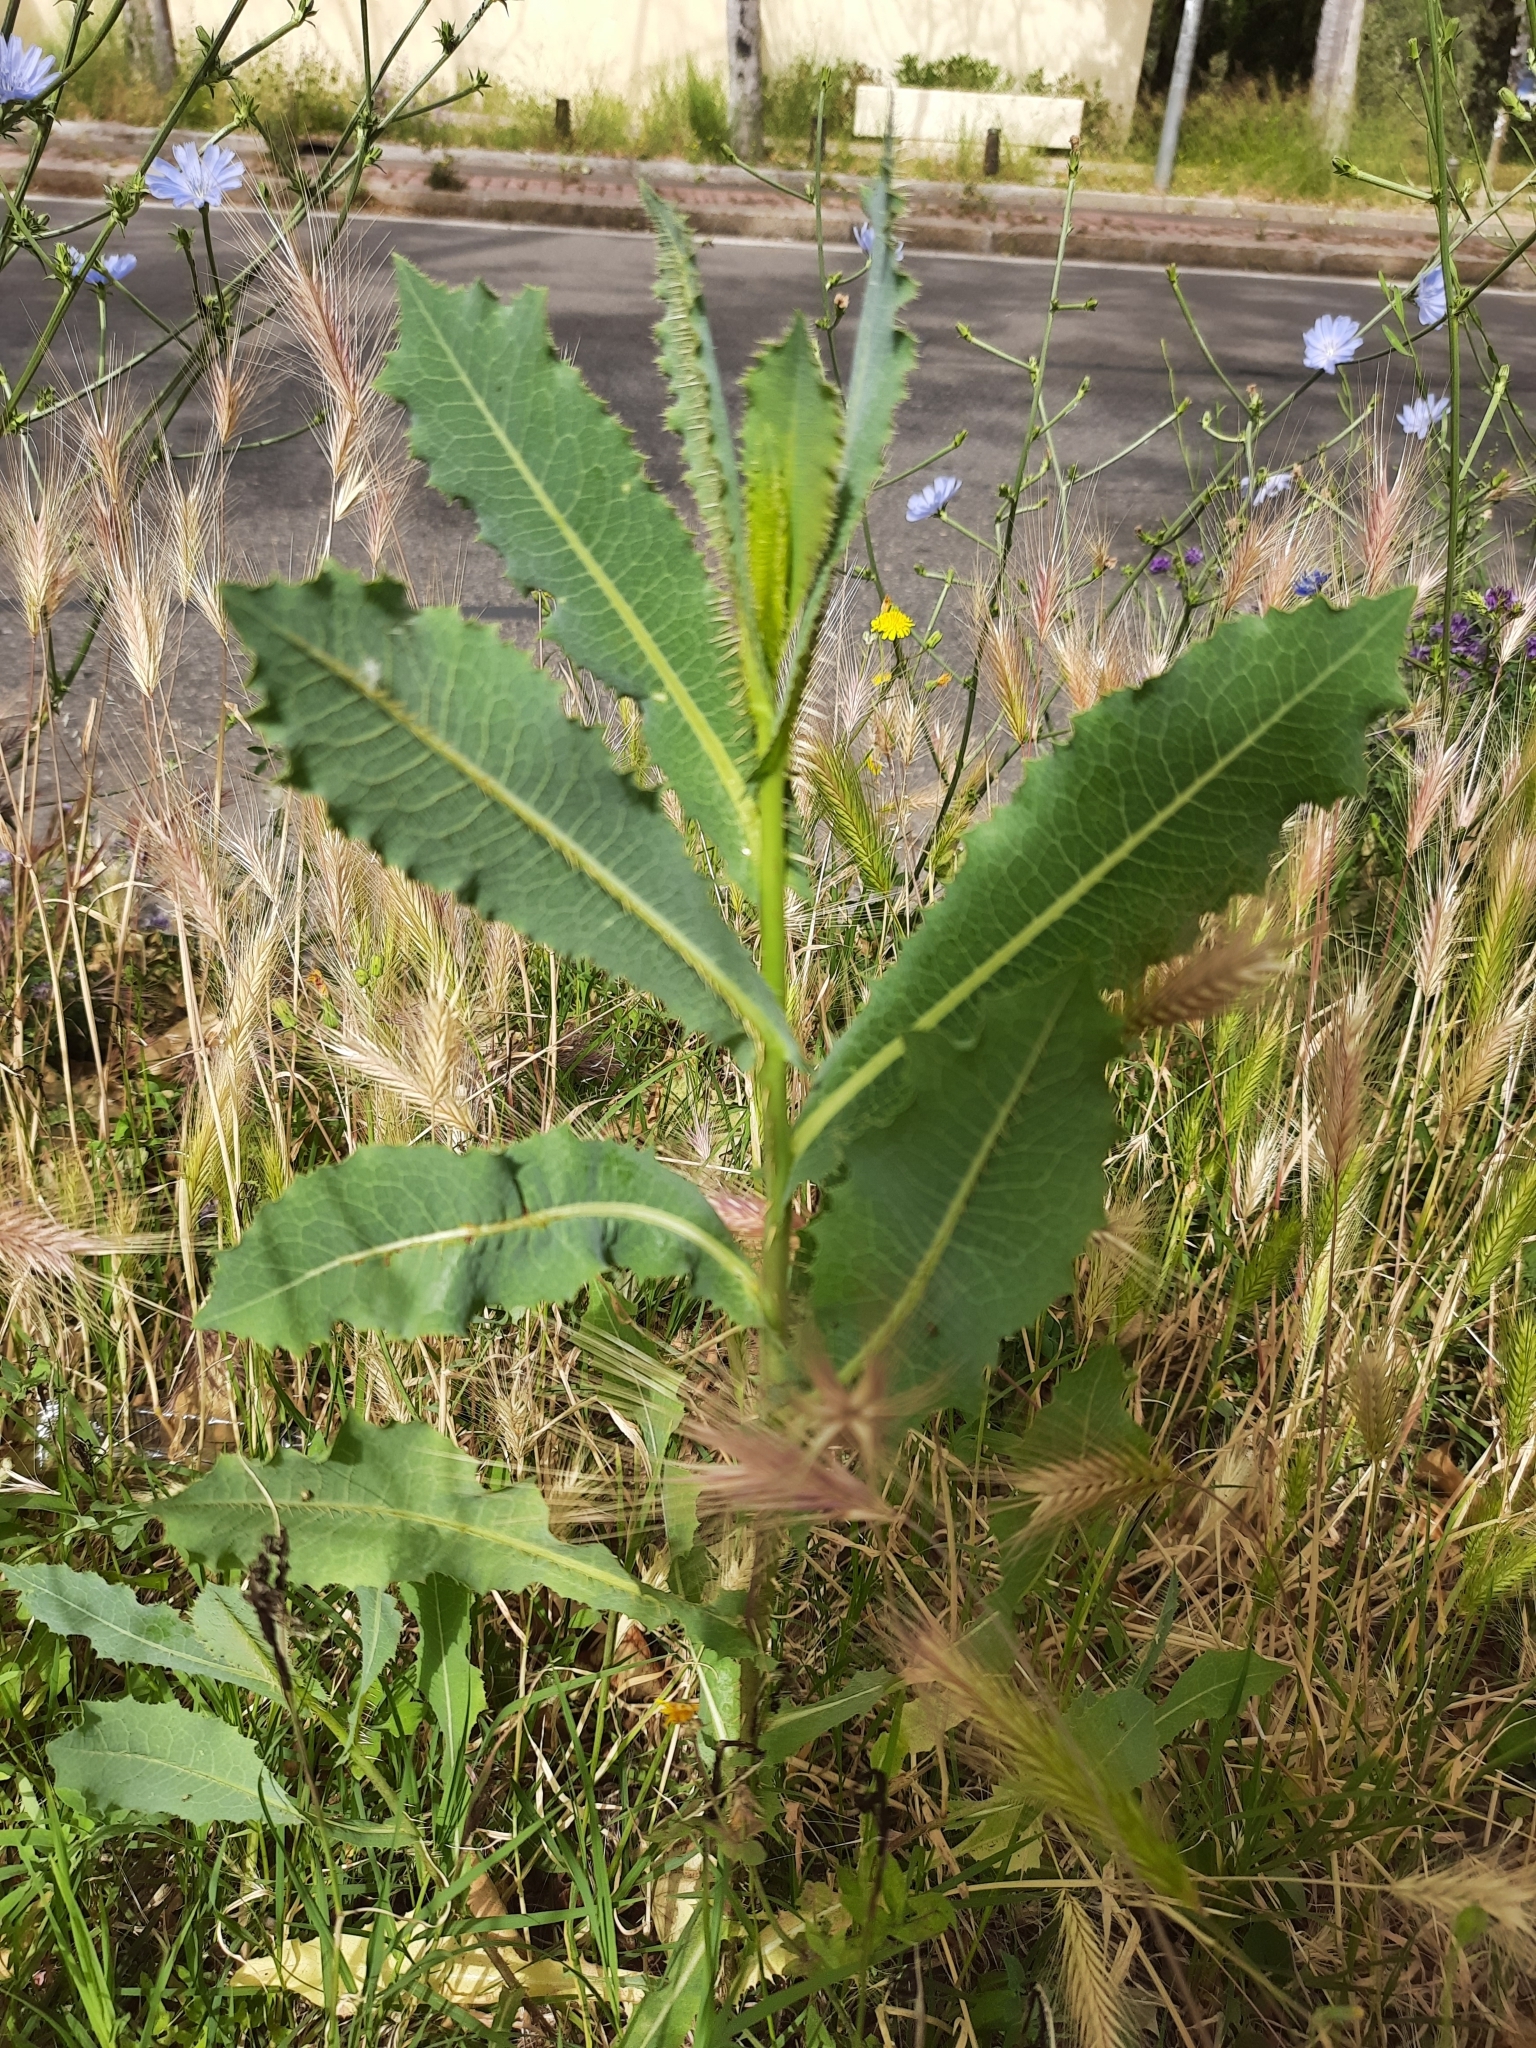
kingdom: Plantae
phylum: Tracheophyta
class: Magnoliopsida
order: Asterales
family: Asteraceae
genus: Lactuca
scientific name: Lactuca serriola
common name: Prickly lettuce
